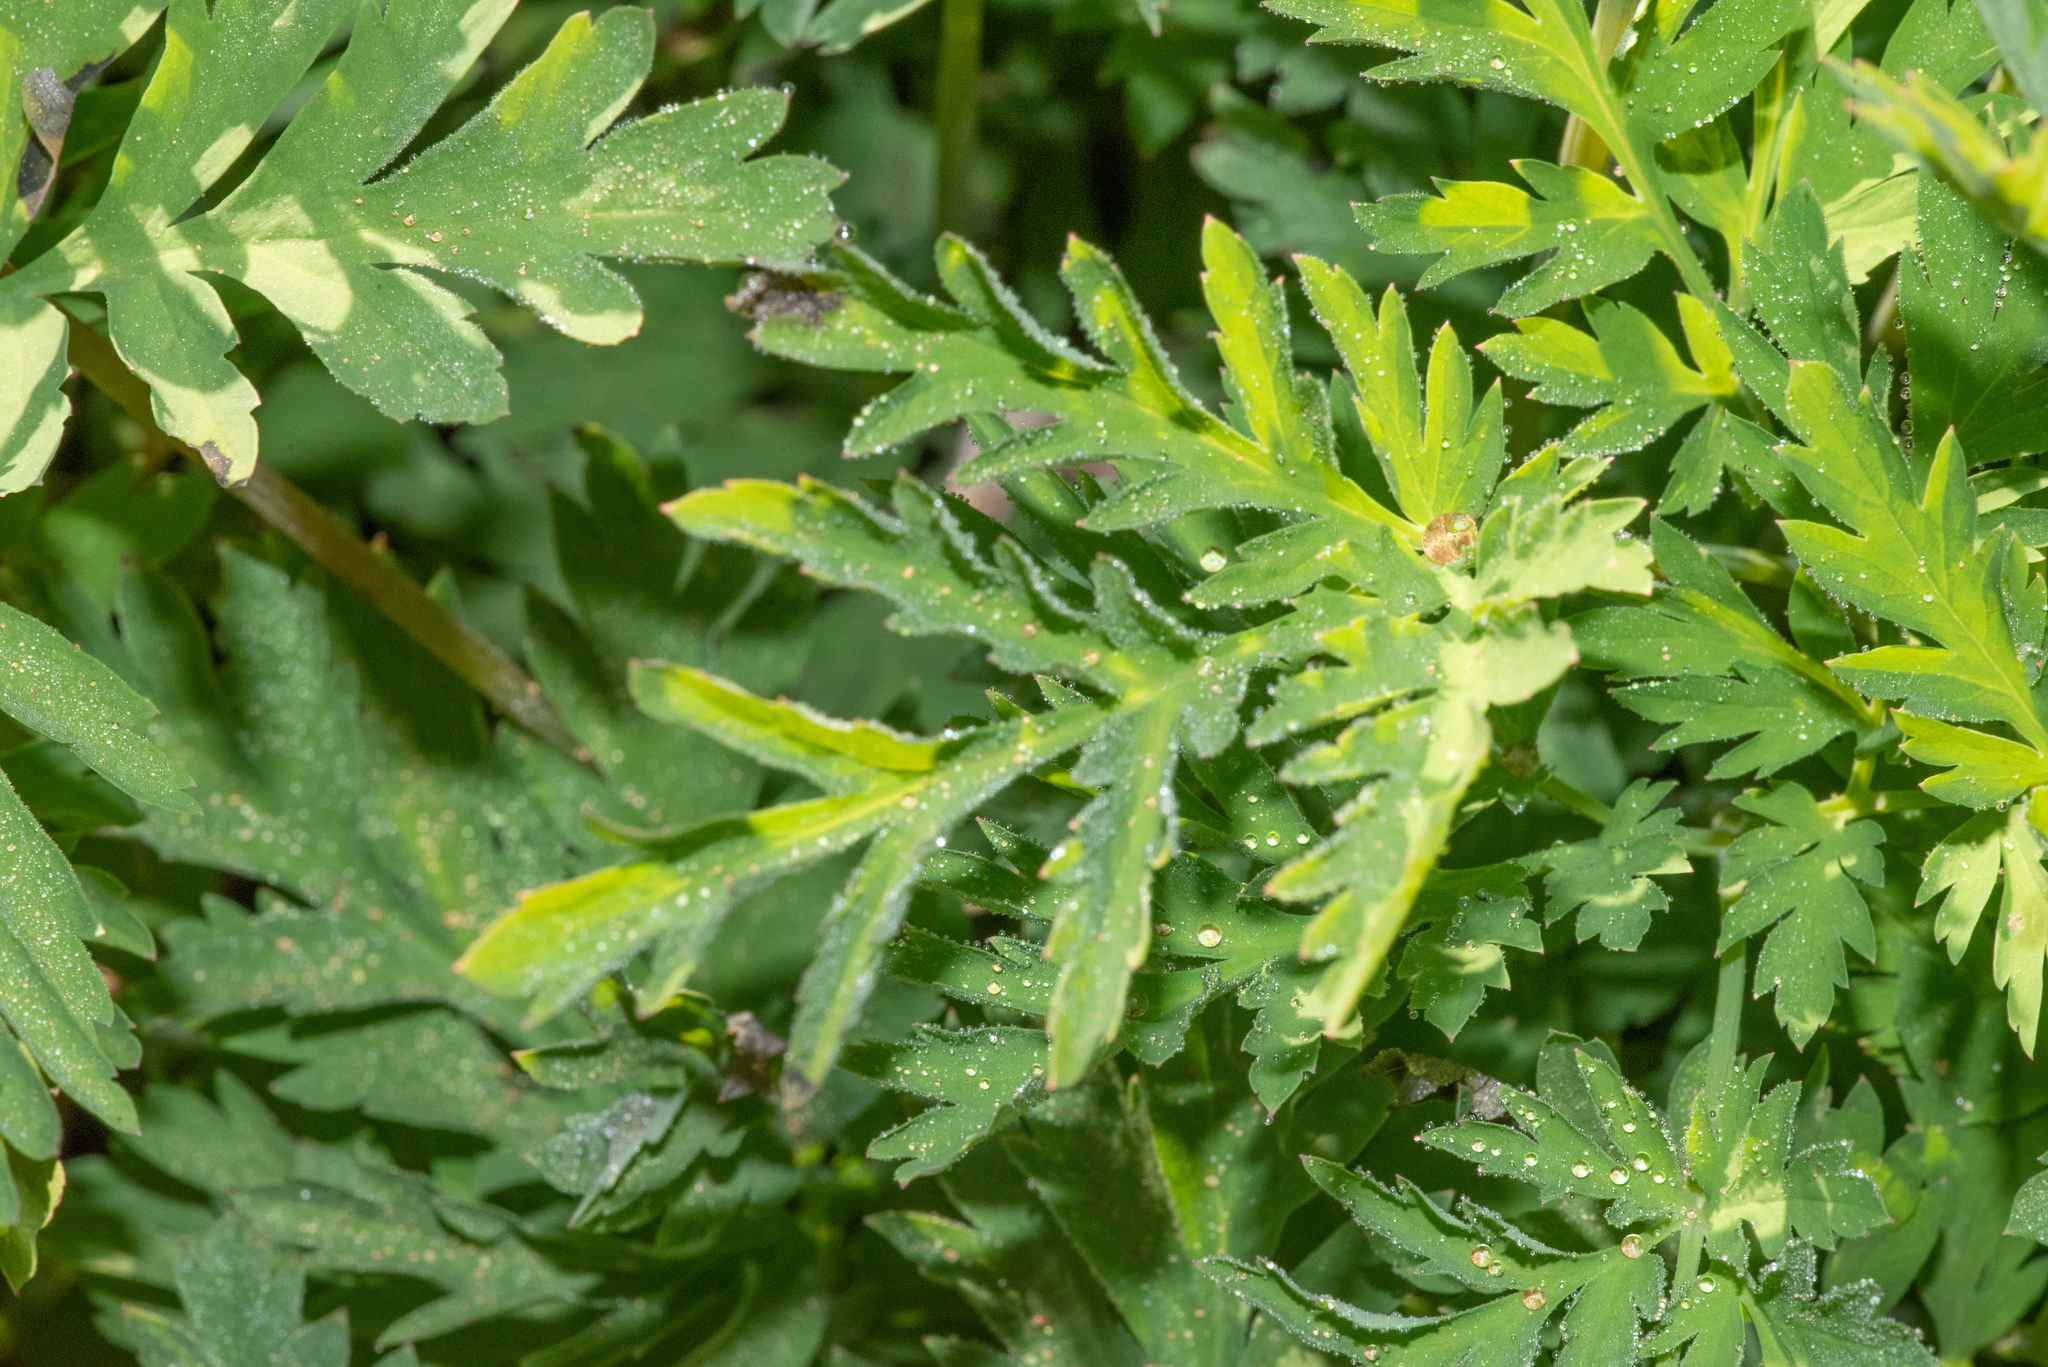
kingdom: Plantae
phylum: Tracheophyta
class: Magnoliopsida
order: Ranunculales
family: Papaveraceae
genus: Dicentra
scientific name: Dicentra formosa
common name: Bleeding-heart
